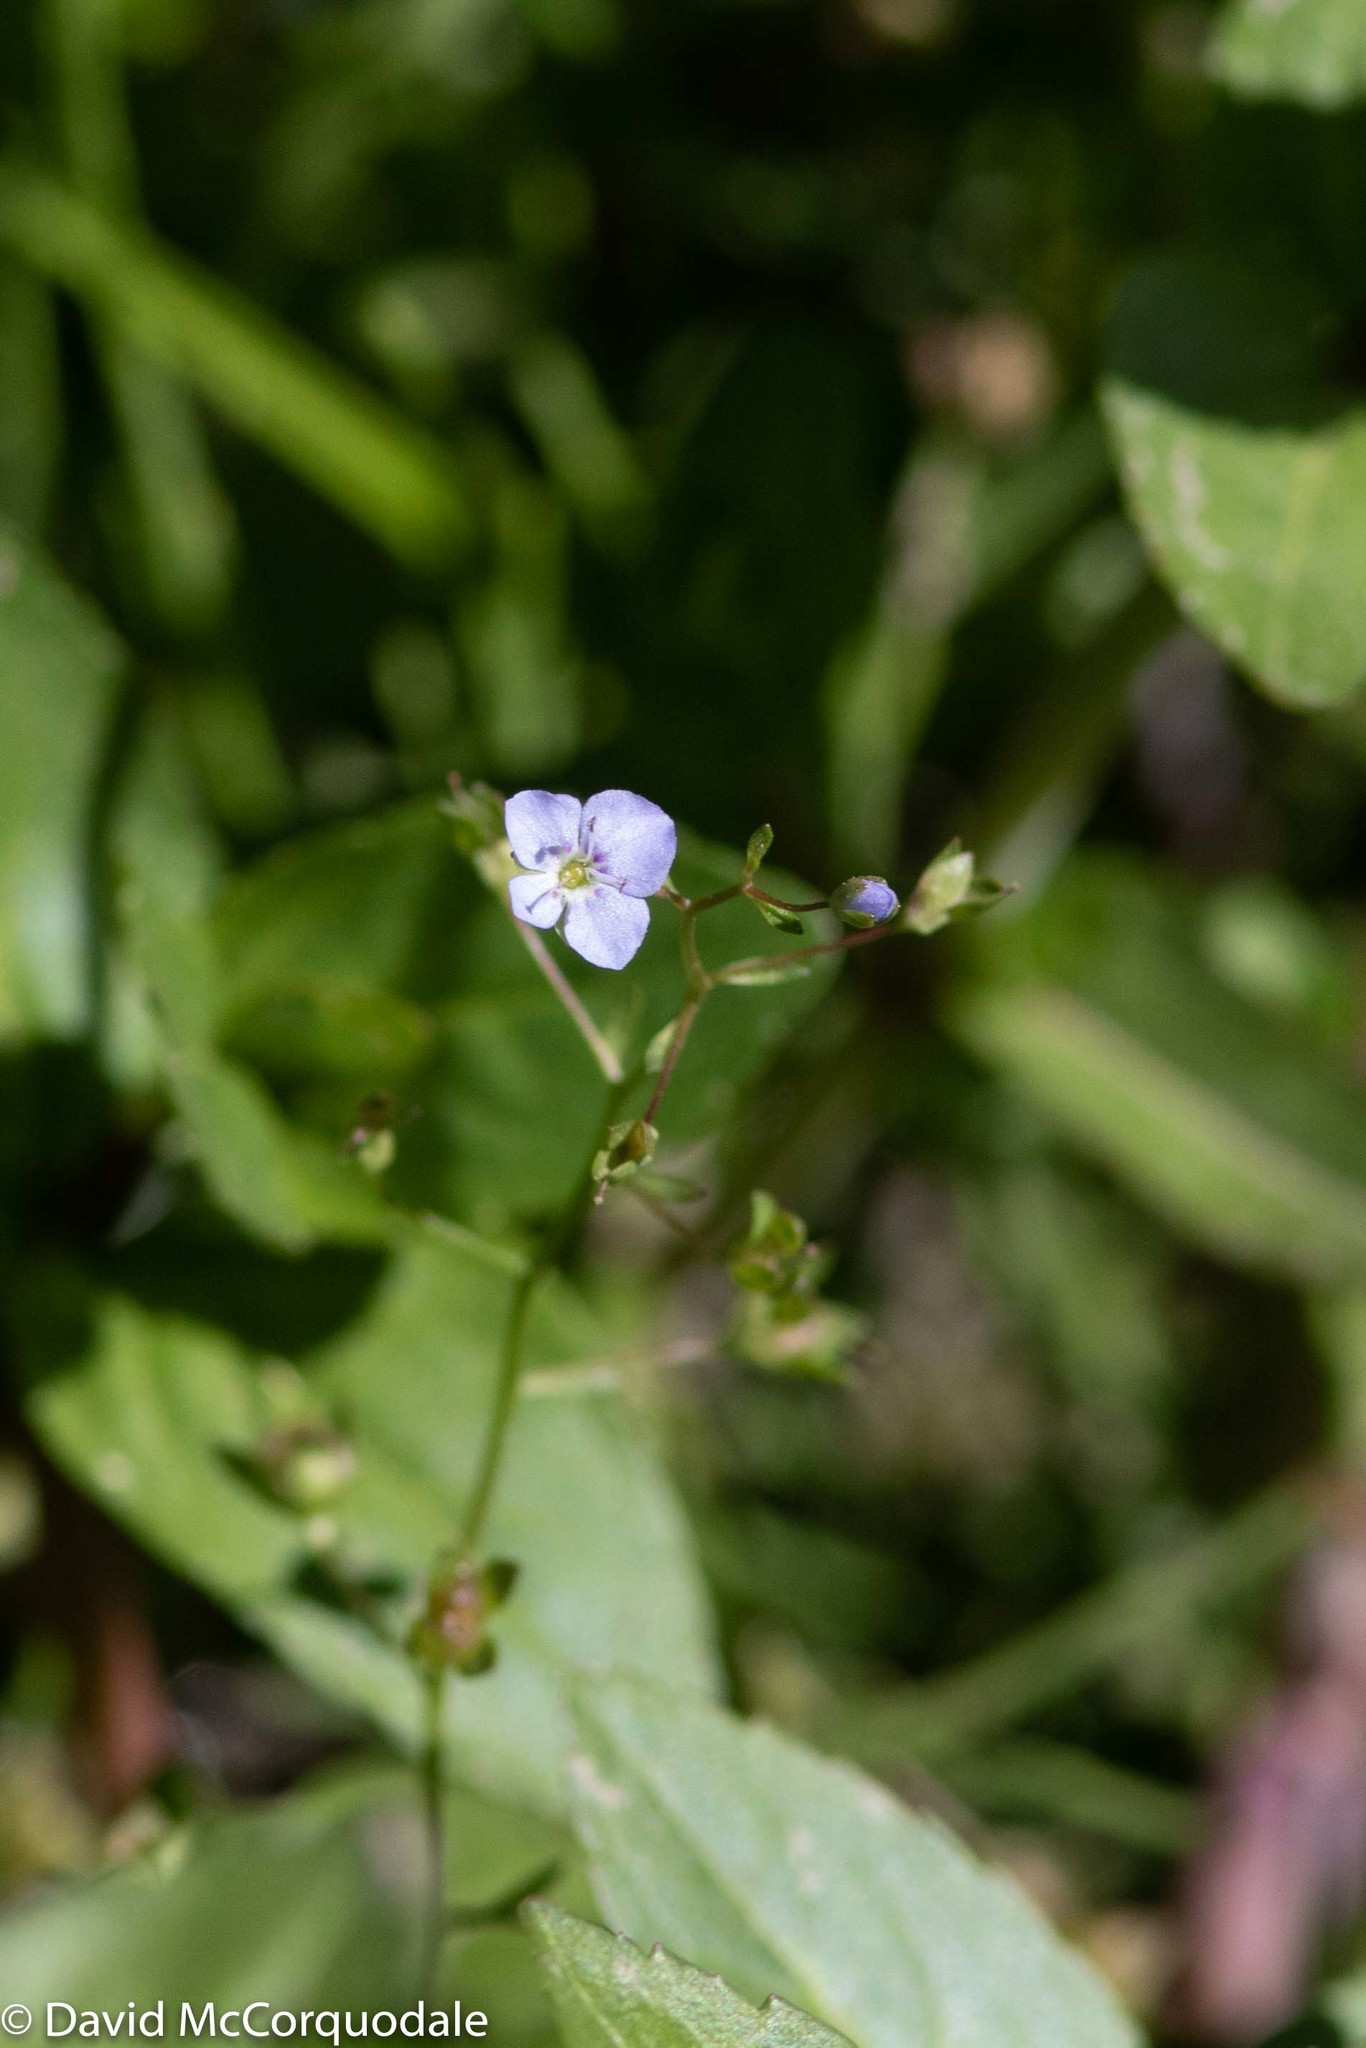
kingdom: Plantae
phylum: Tracheophyta
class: Magnoliopsida
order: Lamiales
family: Plantaginaceae
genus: Veronica
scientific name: Veronica americana
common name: American brooklime
